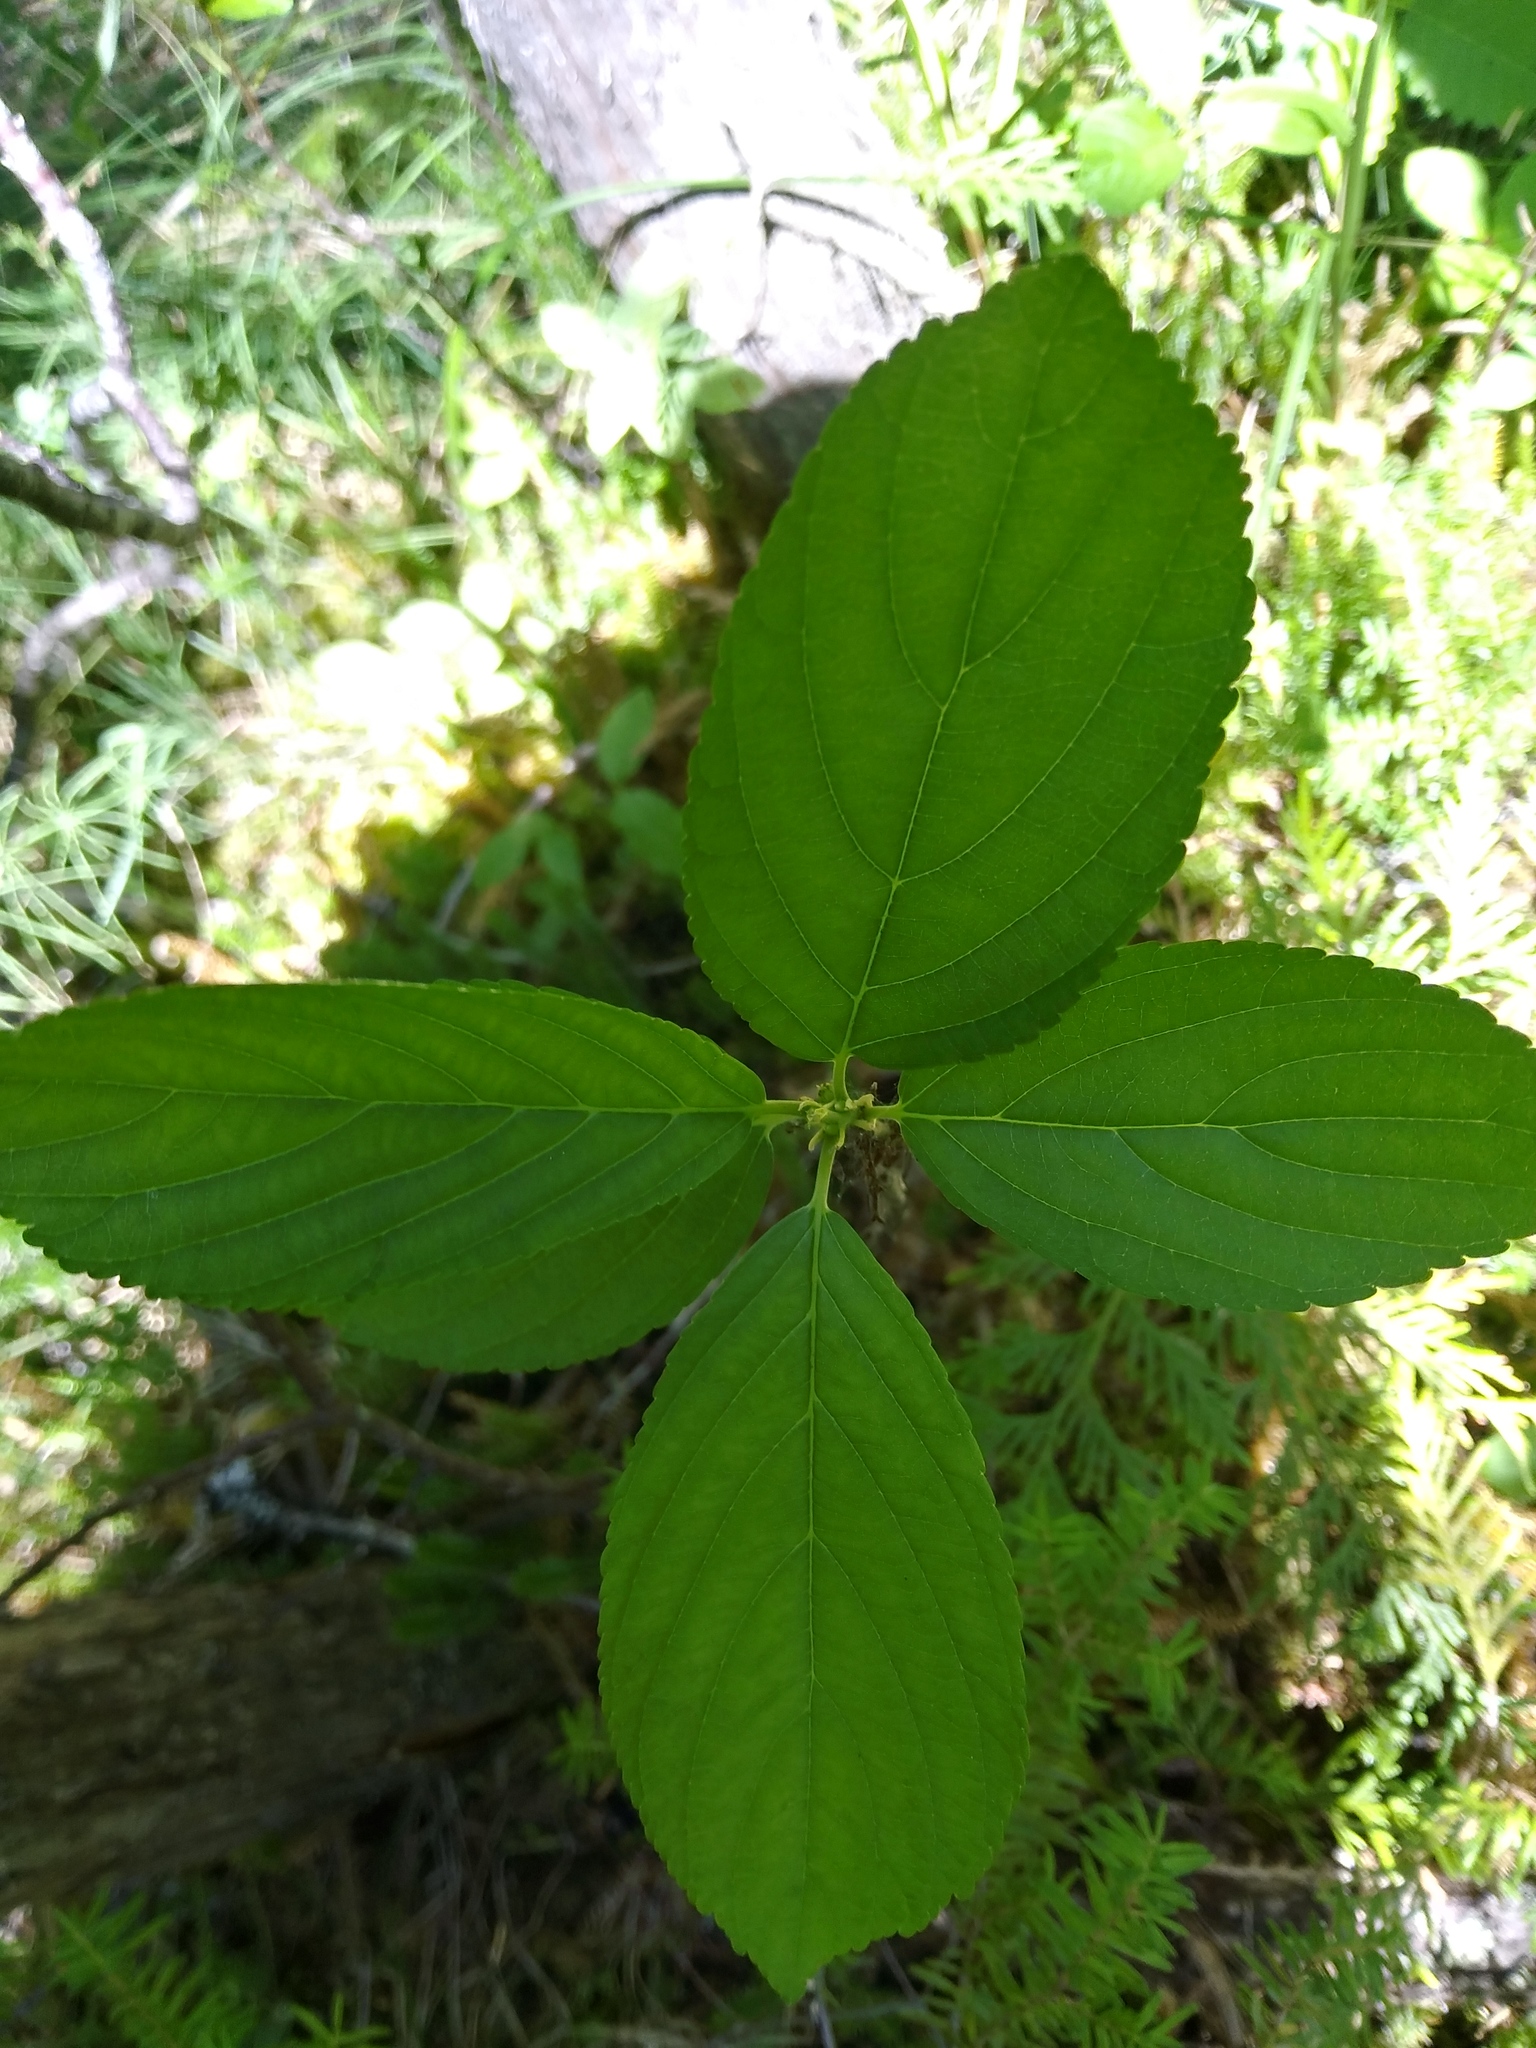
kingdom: Plantae
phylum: Tracheophyta
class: Magnoliopsida
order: Rosales
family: Rhamnaceae
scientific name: Rhamnaceae
